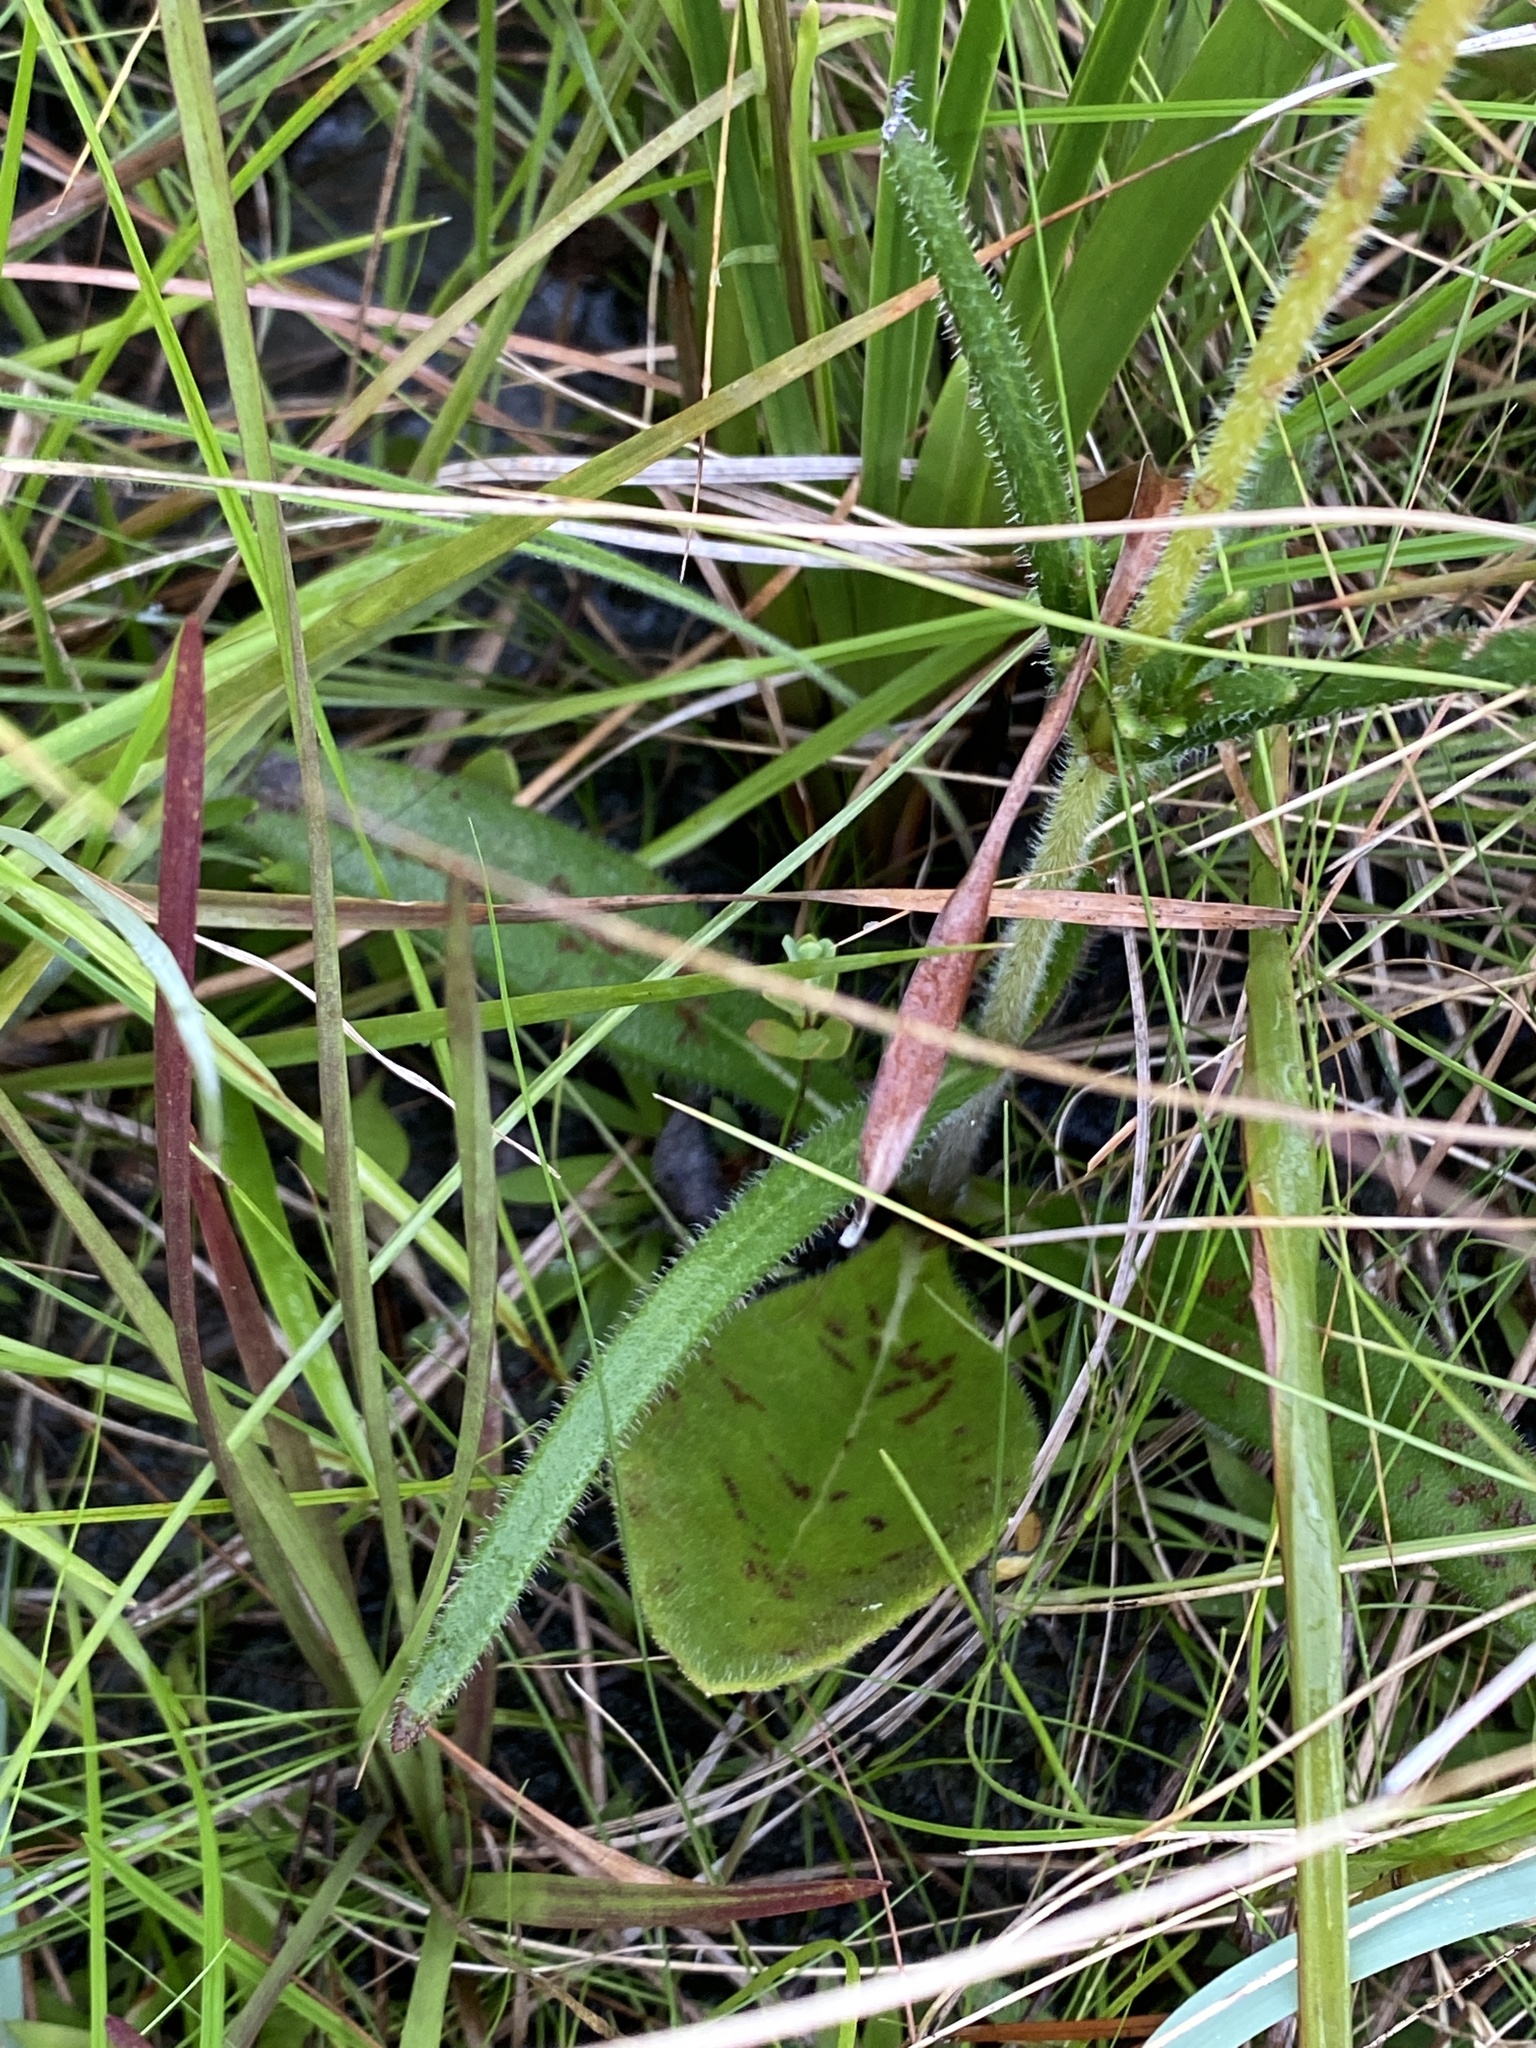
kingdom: Plantae
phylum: Tracheophyta
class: Magnoliopsida
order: Asterales
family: Asteraceae
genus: Helianthus
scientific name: Helianthus heterophyllus
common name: Wetland sunflower
